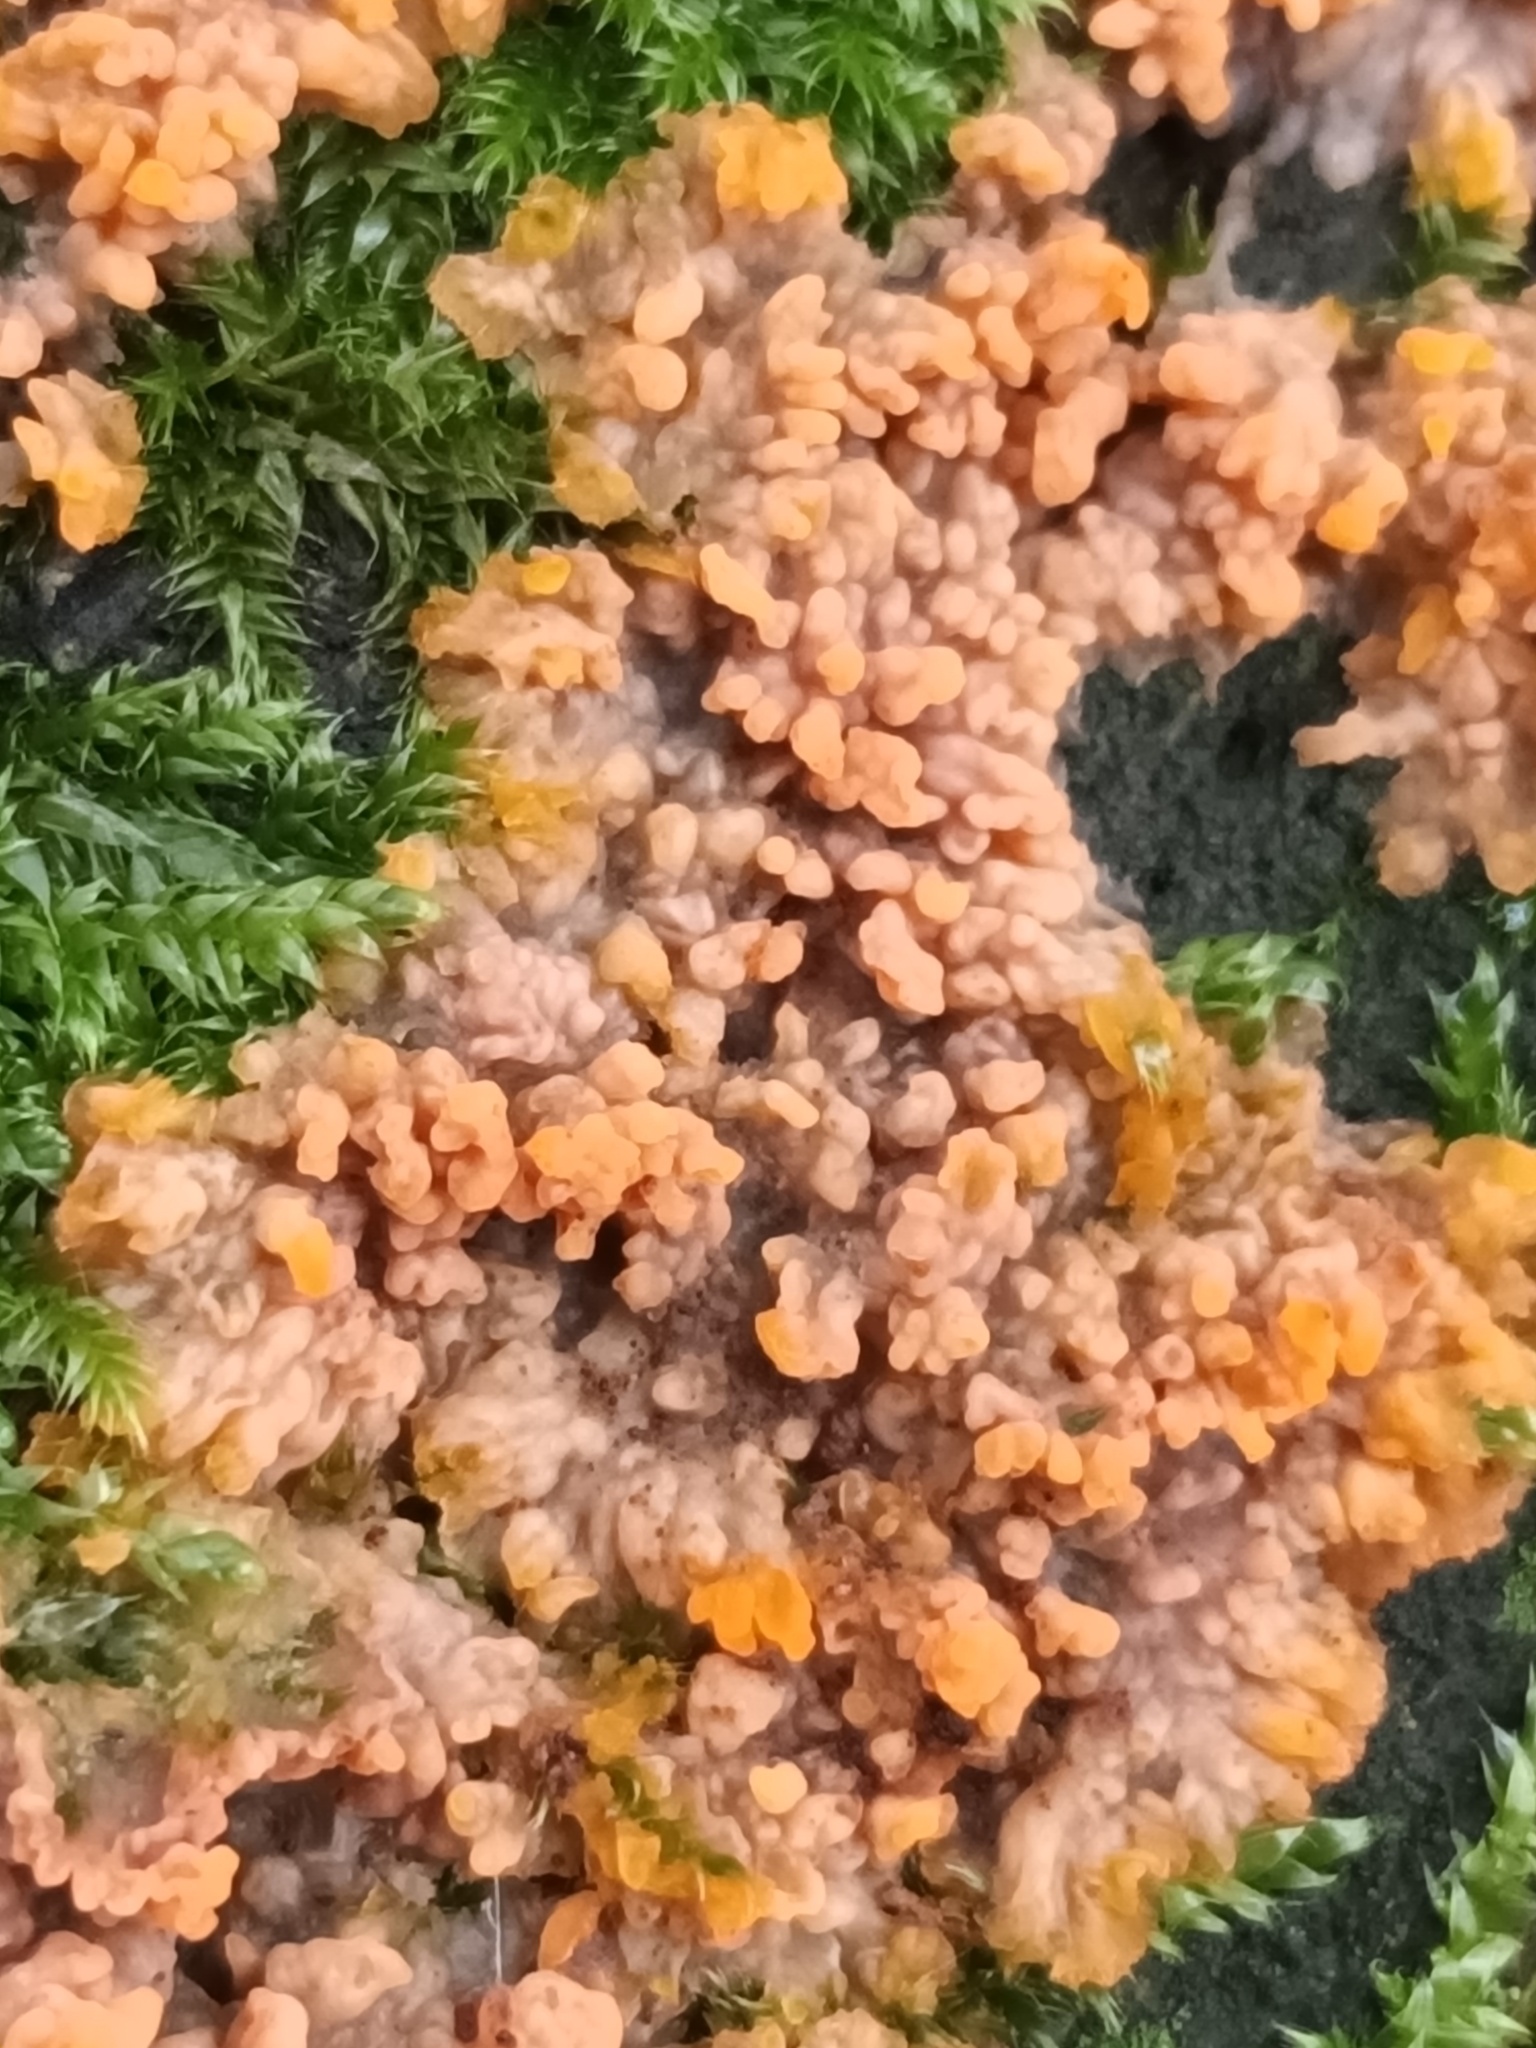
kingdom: Fungi
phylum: Basidiomycota
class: Agaricomycetes
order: Polyporales
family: Meruliaceae
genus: Phlebia
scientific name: Phlebia radiata
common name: Wrinkled crust
